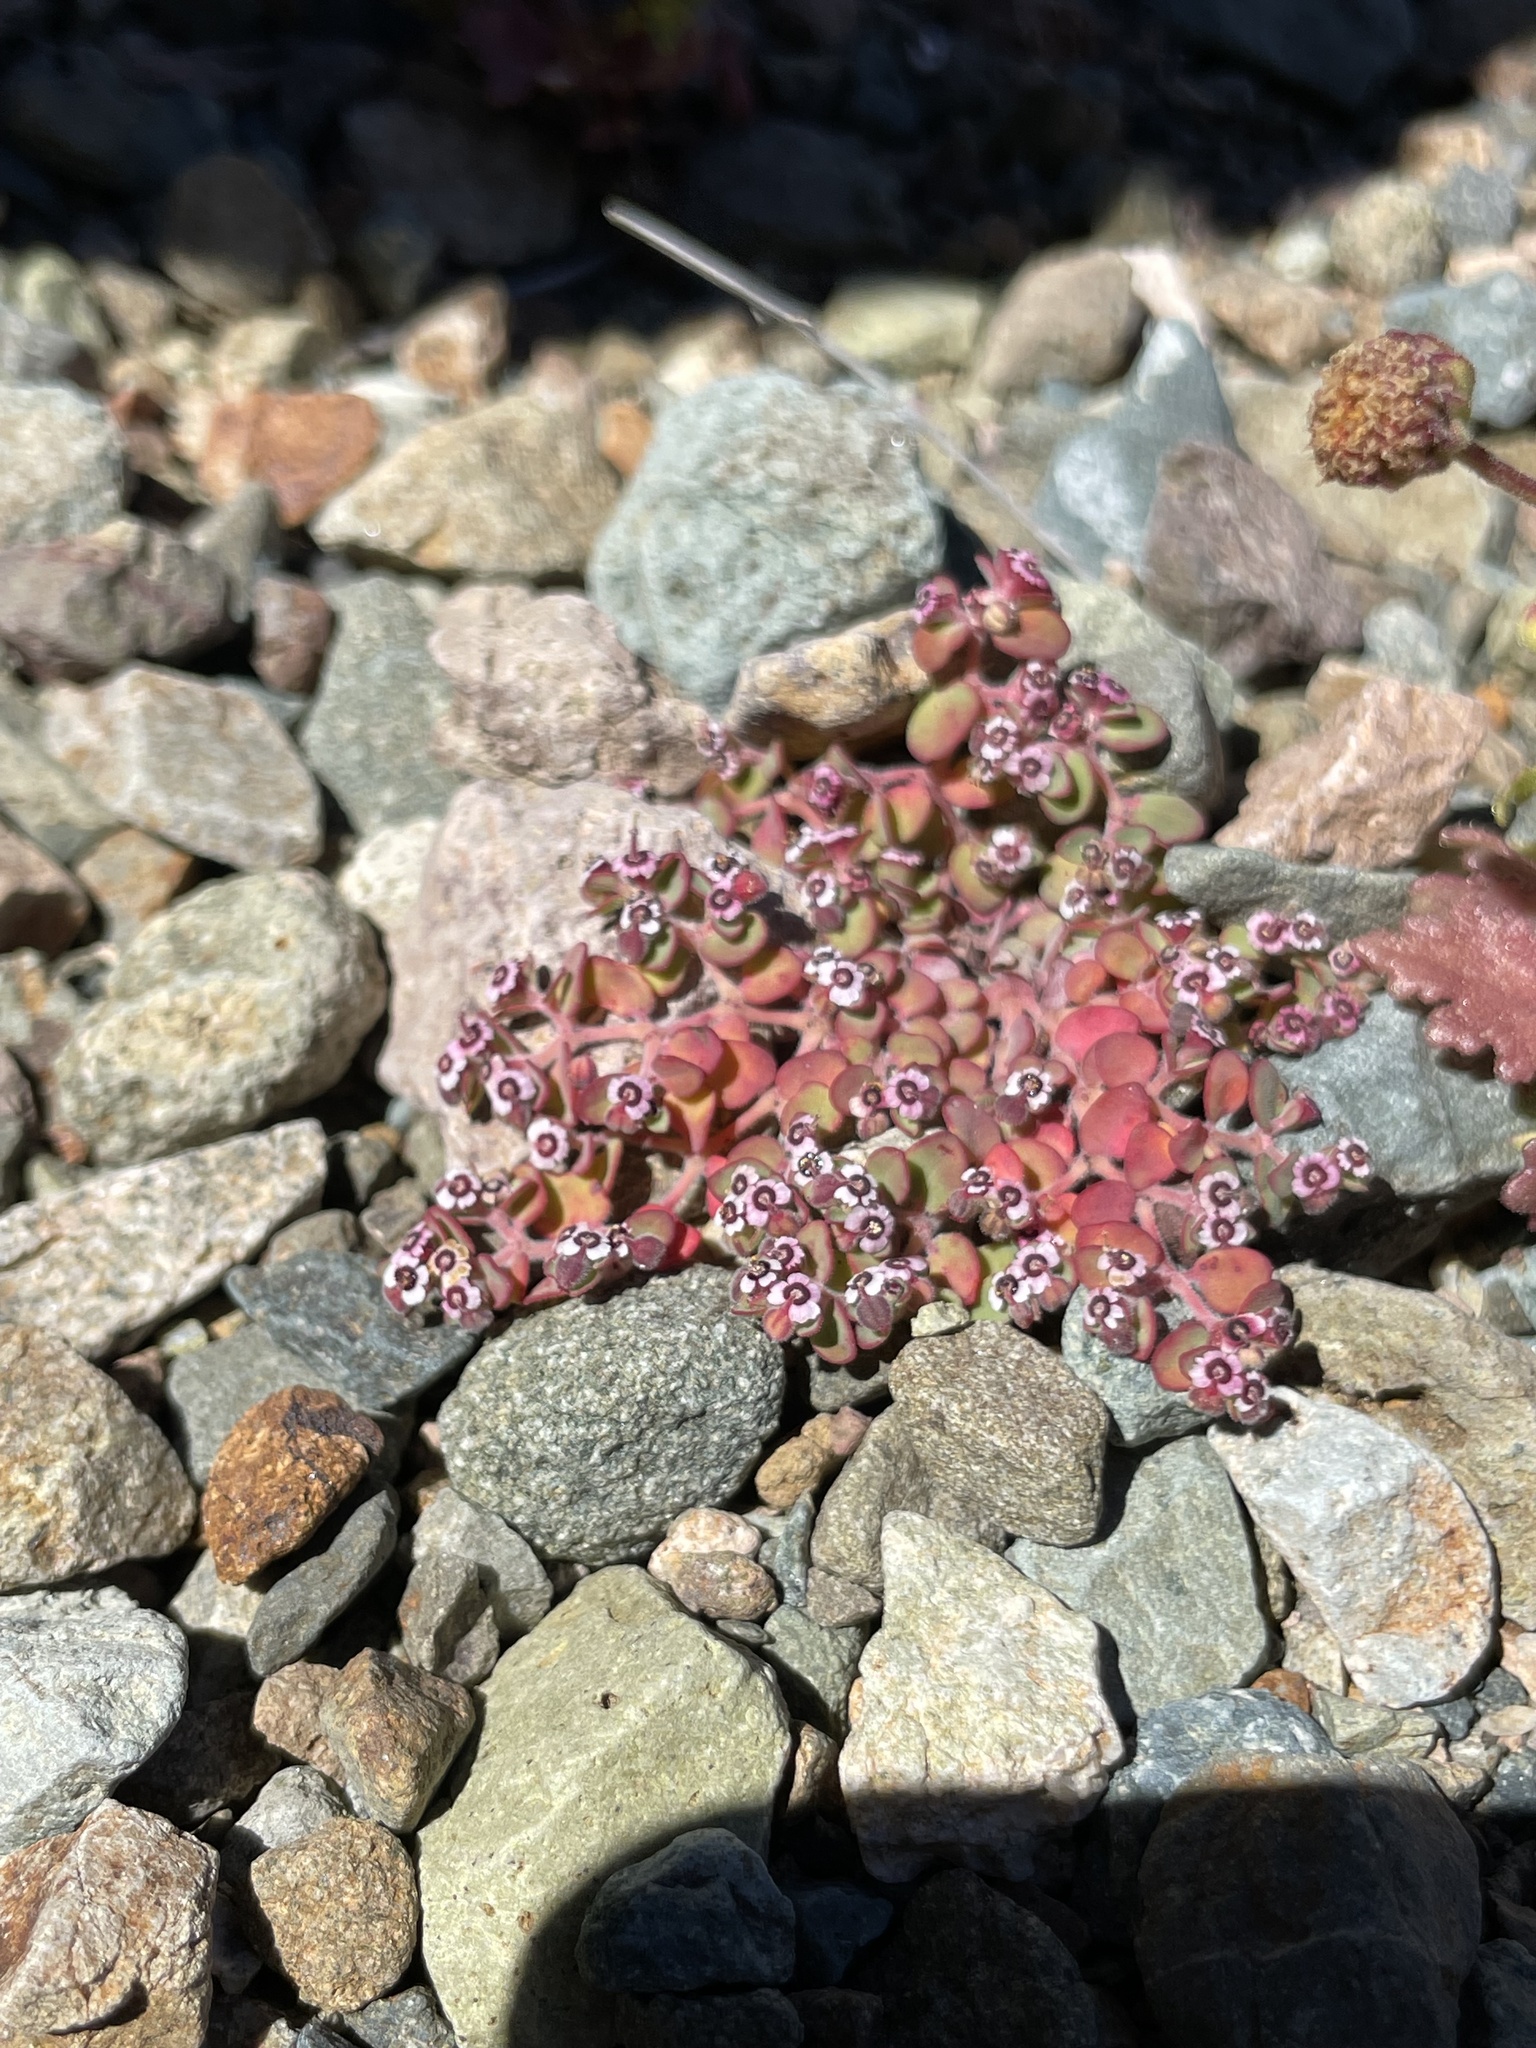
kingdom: Plantae
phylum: Tracheophyta
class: Magnoliopsida
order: Malpighiales
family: Euphorbiaceae
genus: Euphorbia
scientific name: Euphorbia polycarpa
